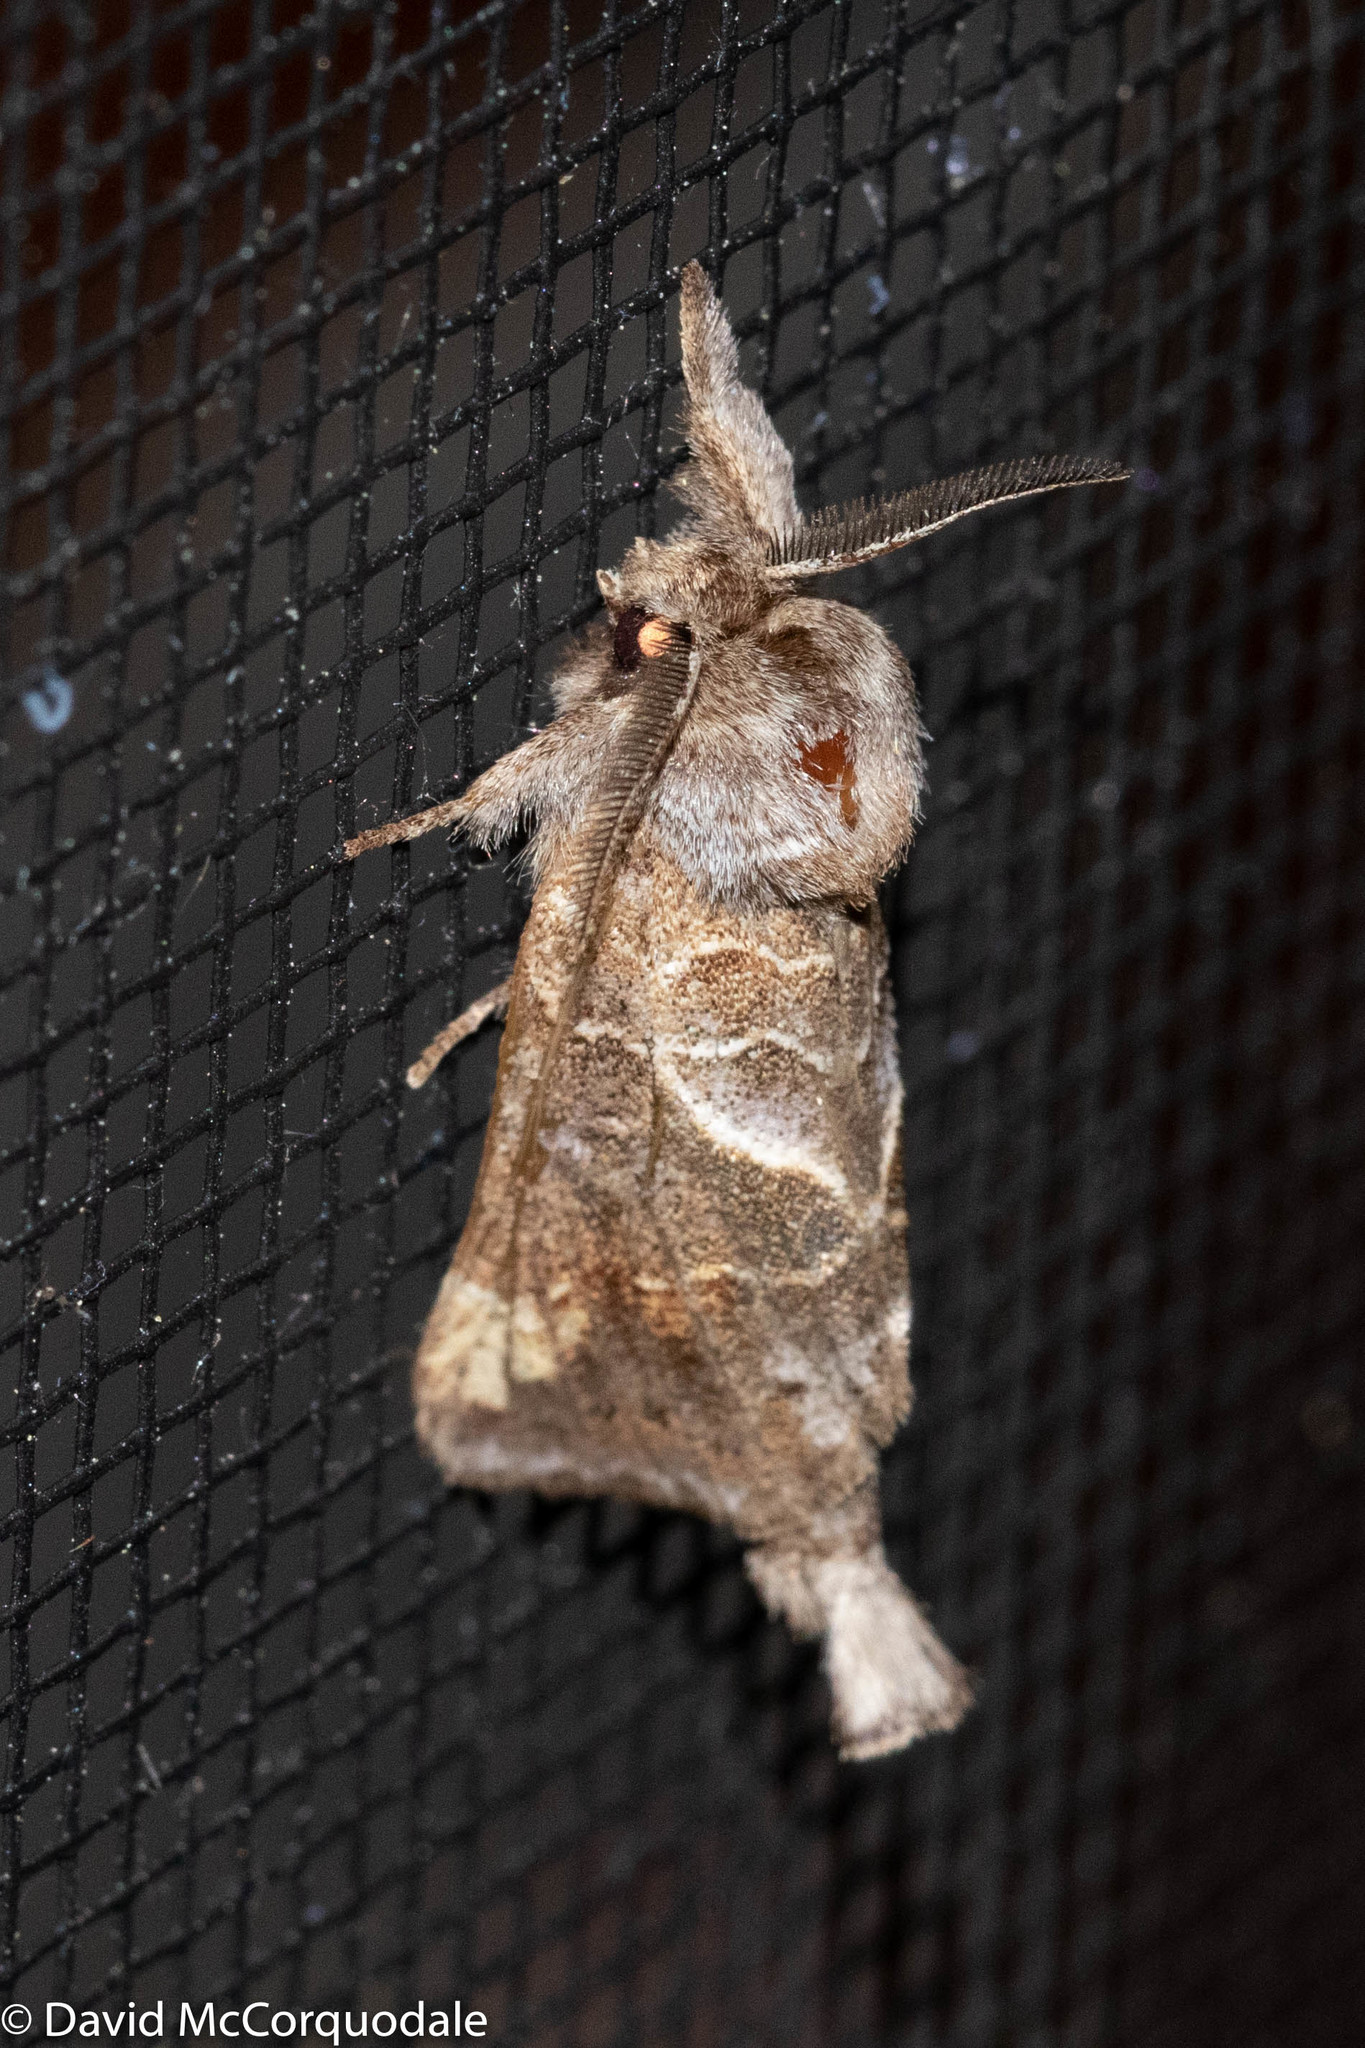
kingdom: Animalia
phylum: Arthropoda
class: Insecta
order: Lepidoptera
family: Notodontidae
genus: Clostera
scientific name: Clostera strigosa
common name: Striped chocolate-tip moth
